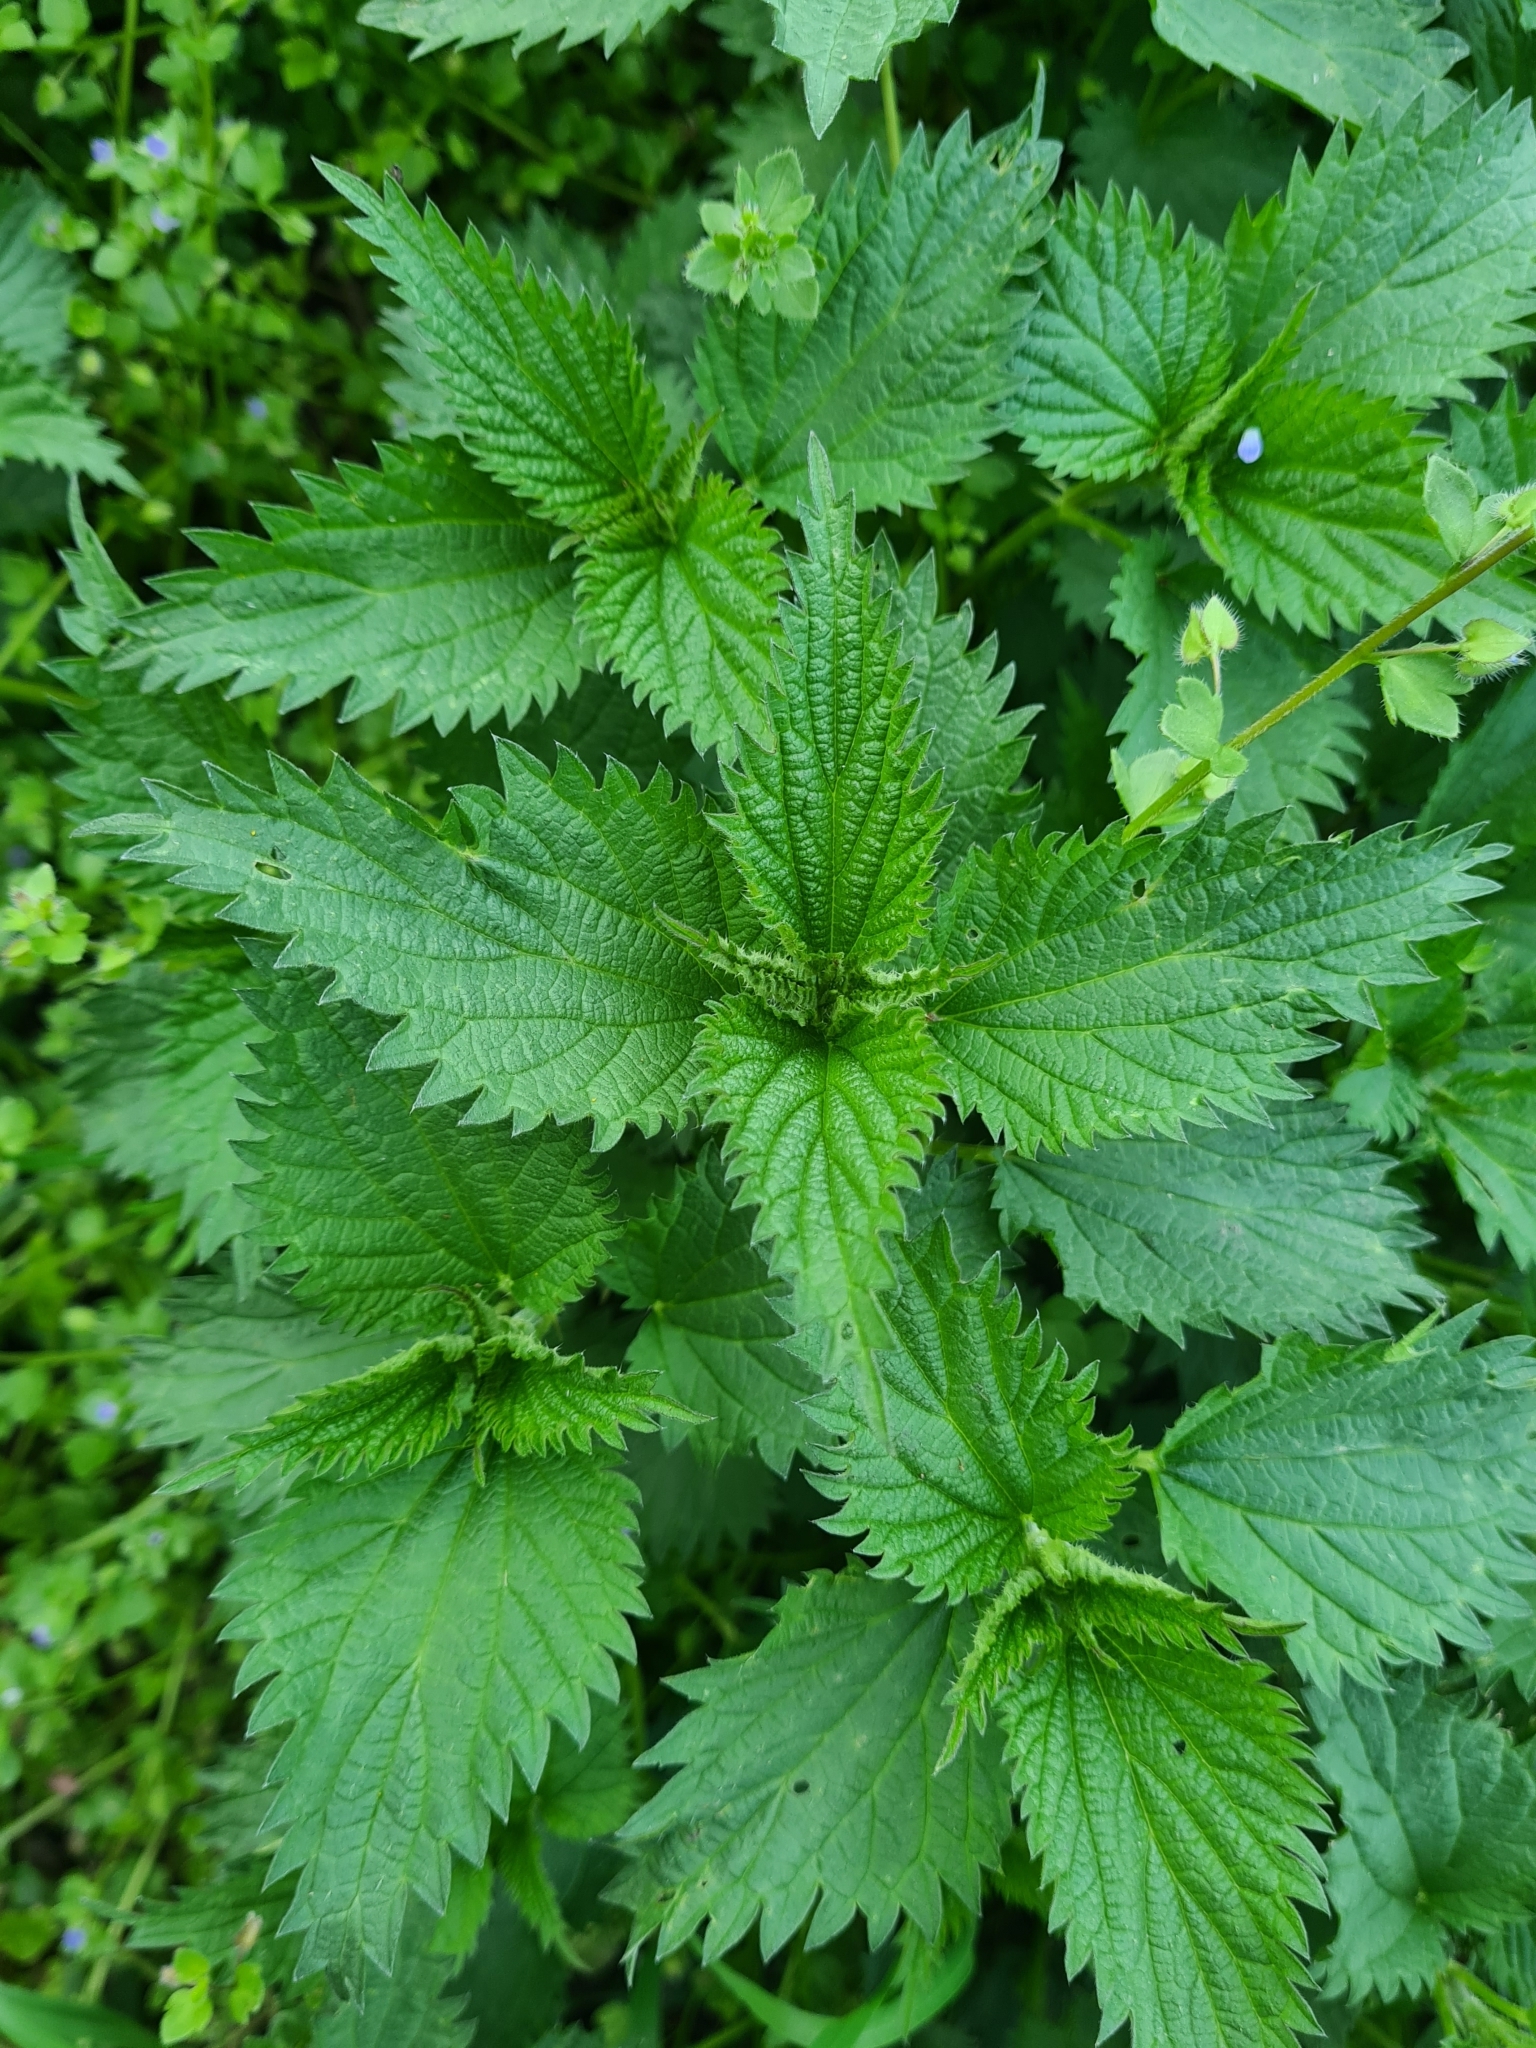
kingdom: Plantae
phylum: Tracheophyta
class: Magnoliopsida
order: Rosales
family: Urticaceae
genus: Urtica
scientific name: Urtica dioica
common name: Common nettle
